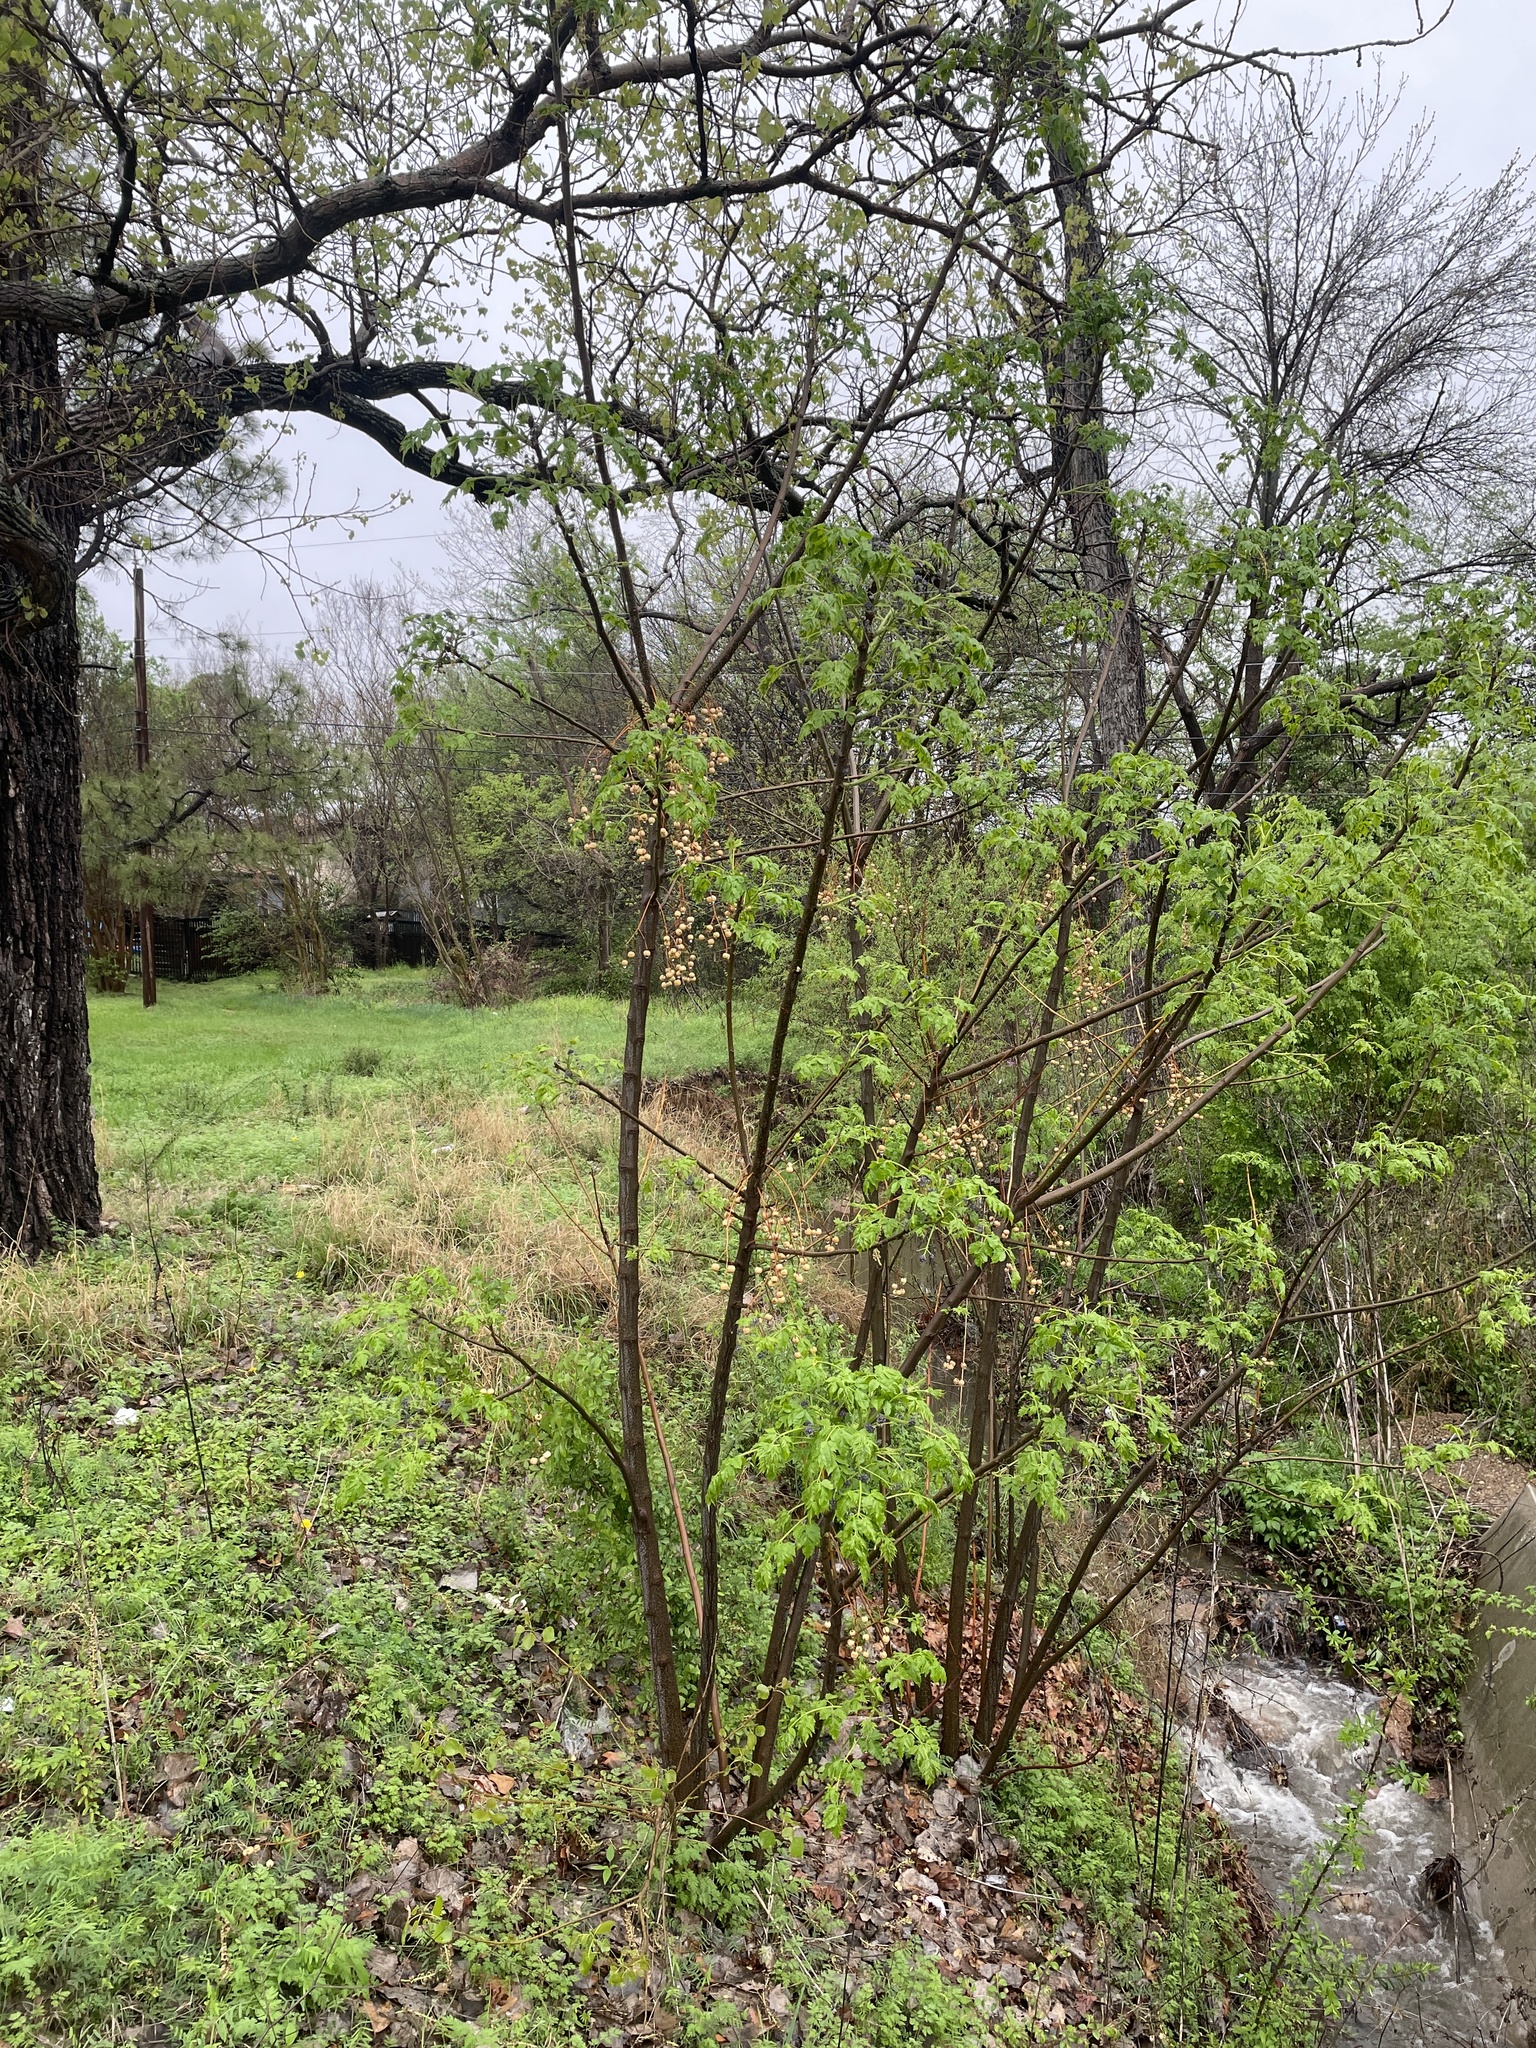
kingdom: Plantae
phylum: Tracheophyta
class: Magnoliopsida
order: Sapindales
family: Meliaceae
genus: Melia
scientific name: Melia azedarach
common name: Chinaberrytree
